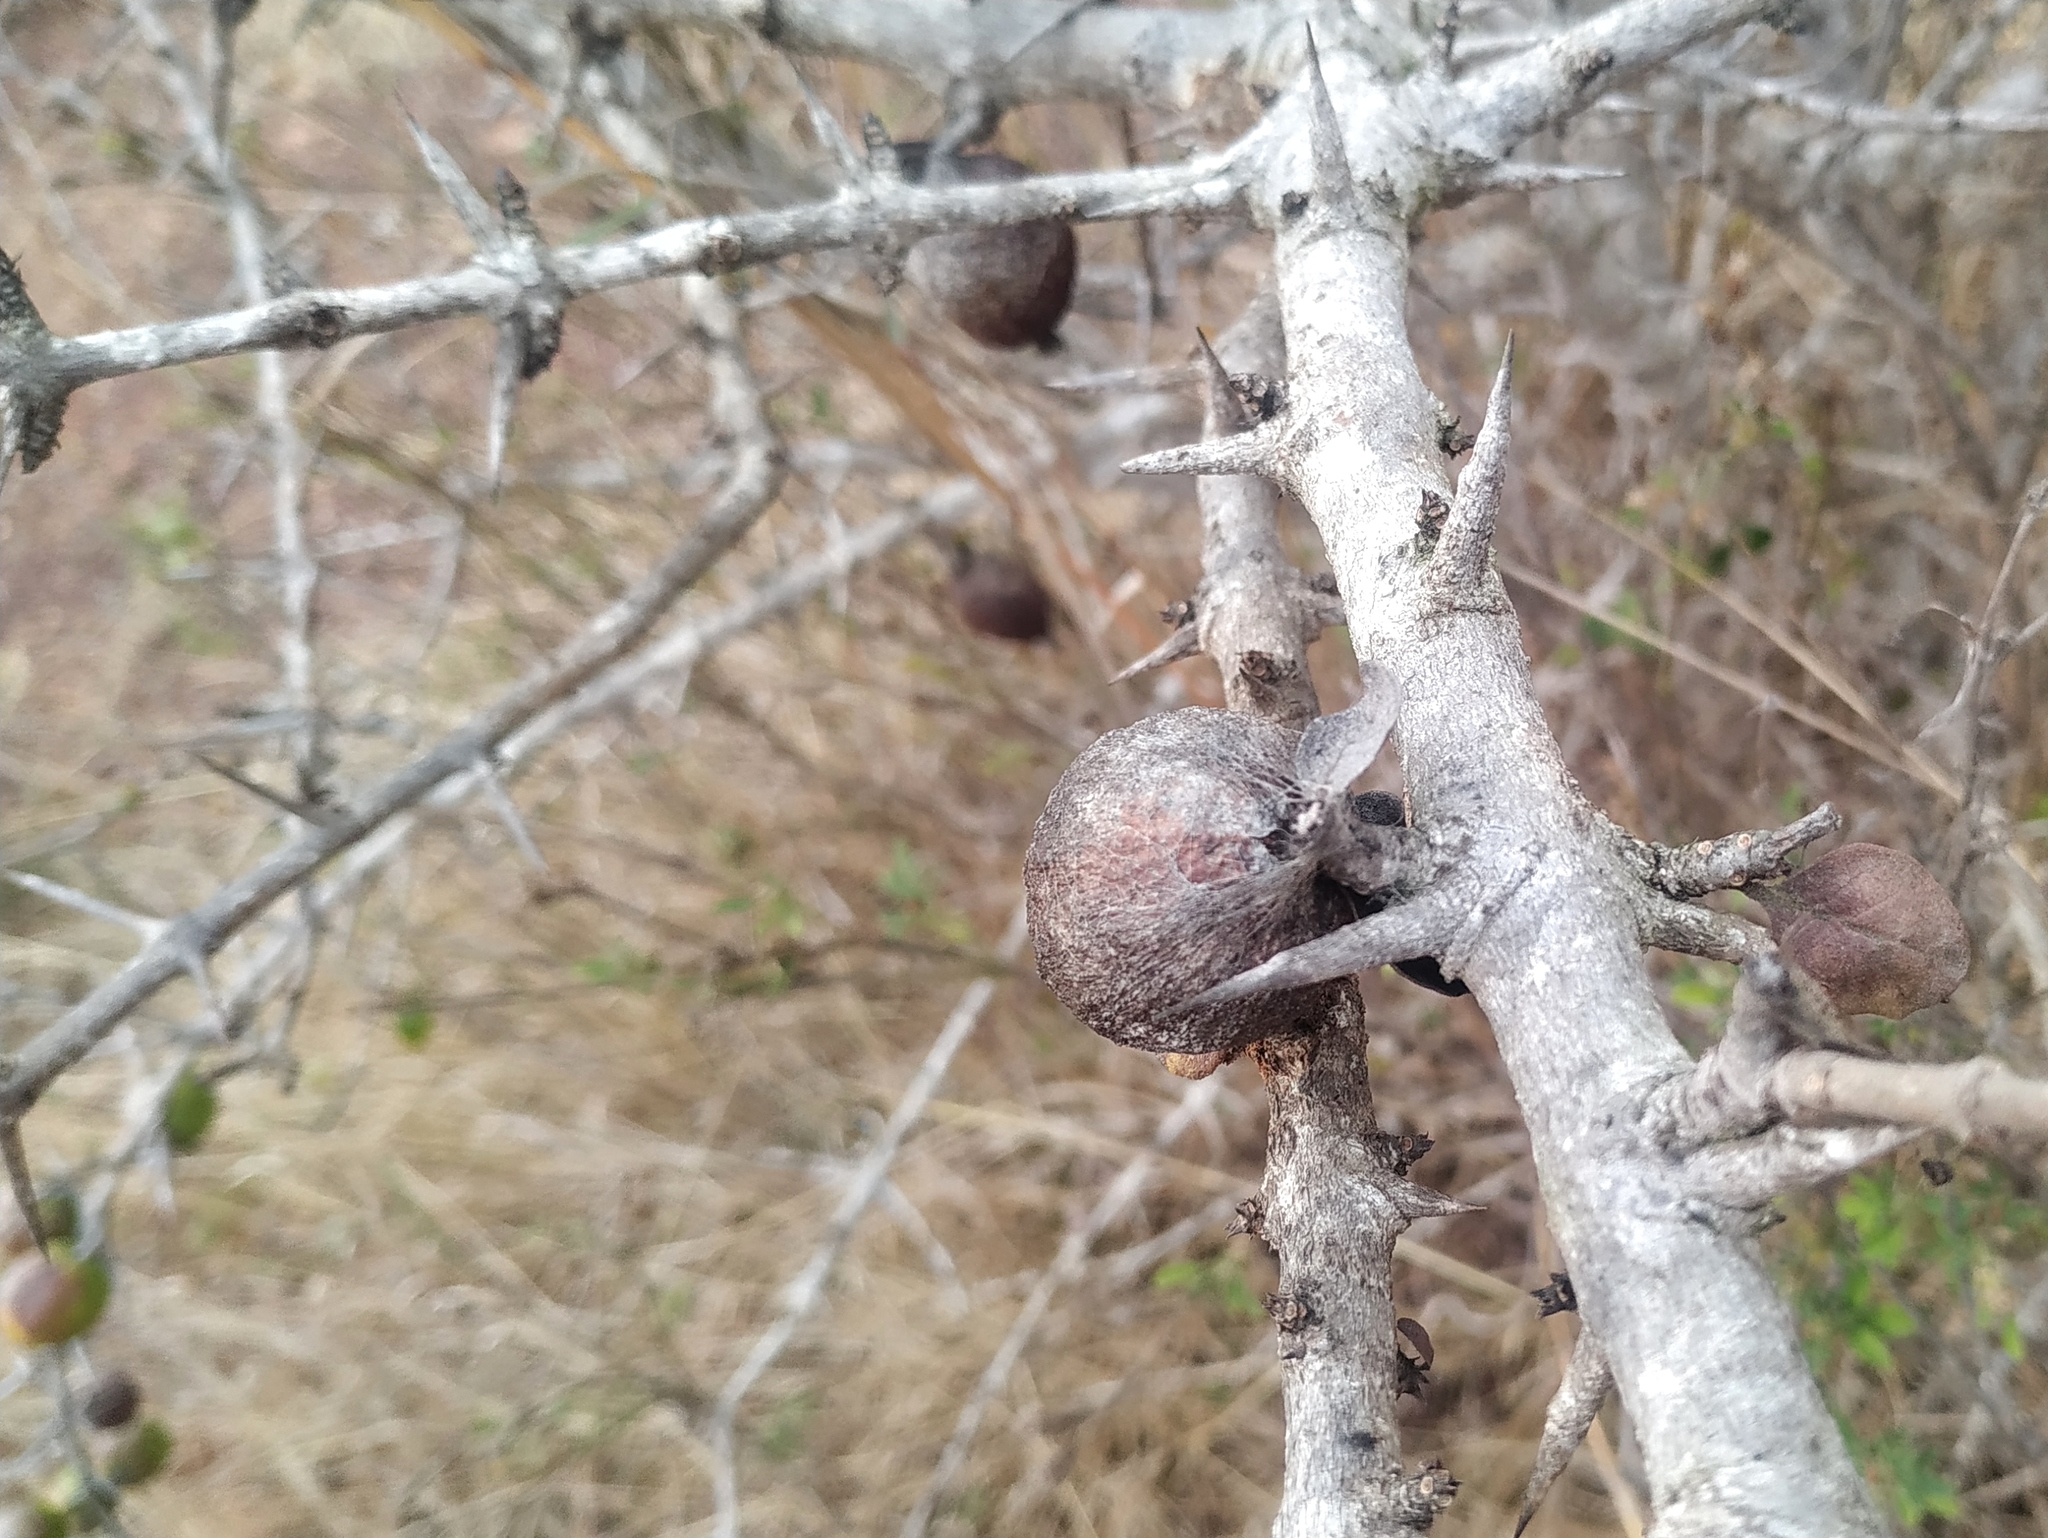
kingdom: Plantae
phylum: Tracheophyta
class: Magnoliopsida
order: Gentianales
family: Rubiaceae
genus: Catunaregam
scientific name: Catunaregam spinosa
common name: Emetic-nut
